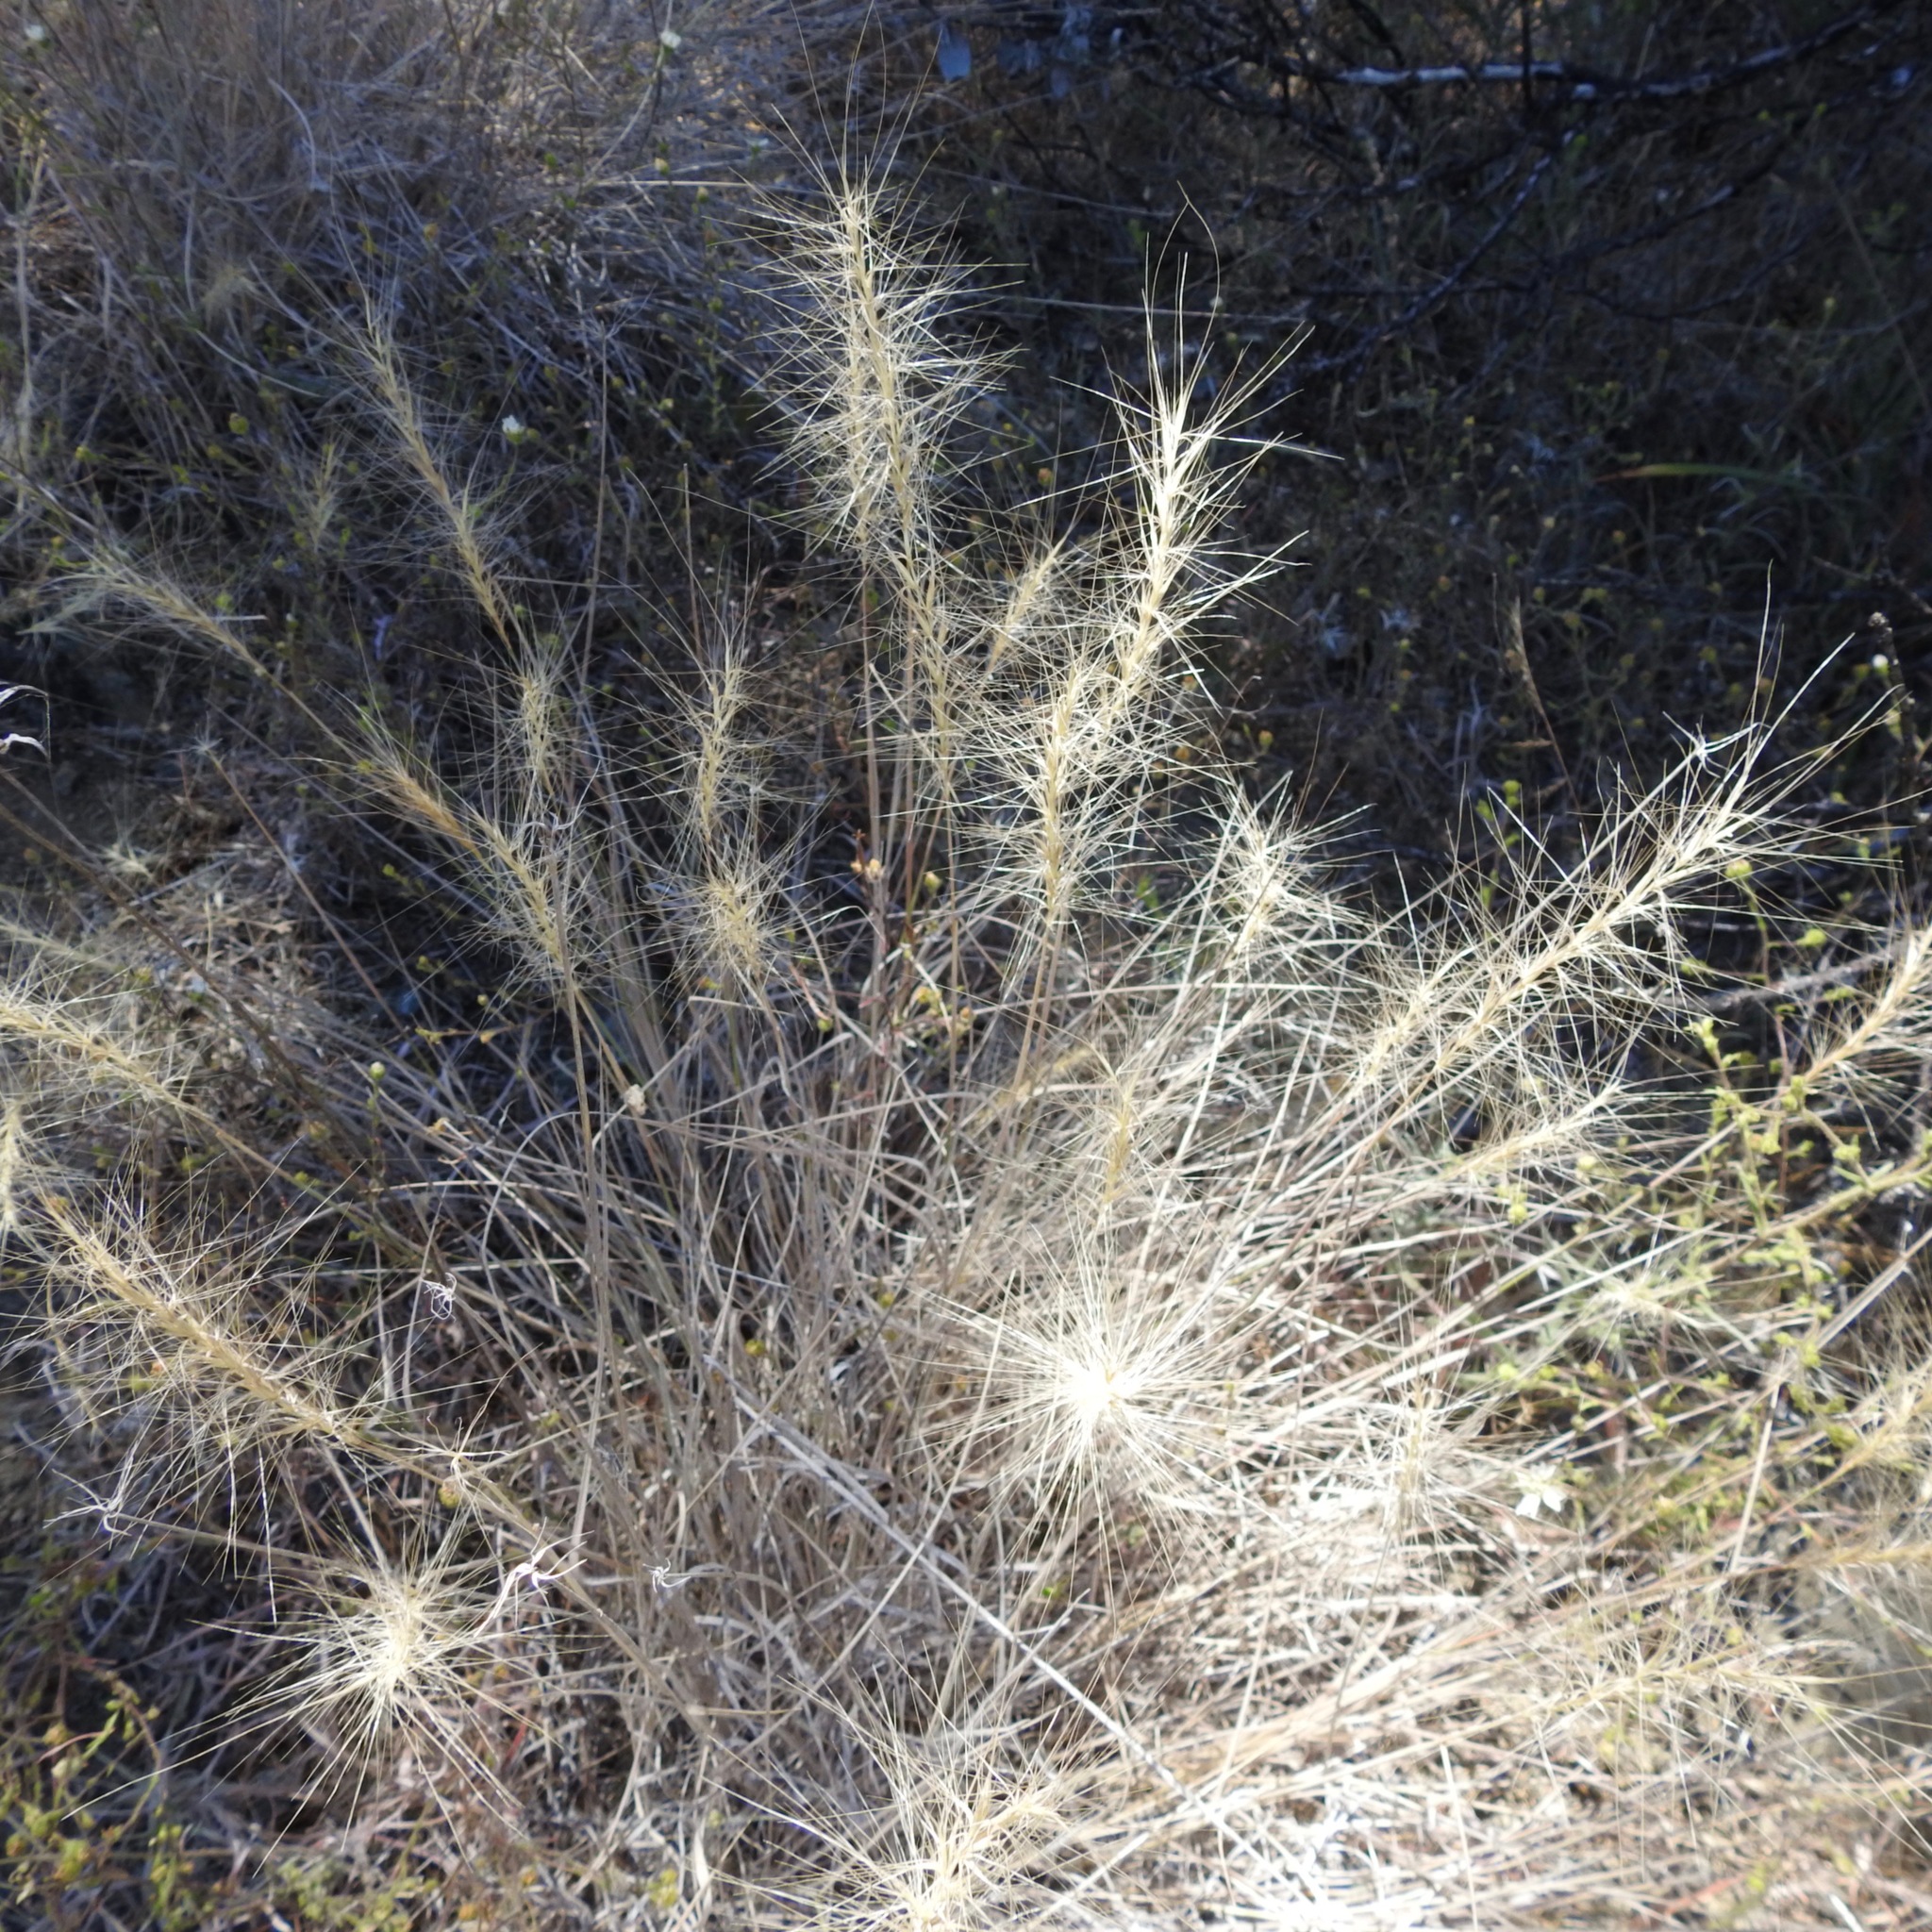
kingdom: Plantae
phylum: Tracheophyta
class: Liliopsida
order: Poales
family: Poaceae
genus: Elymus
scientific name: Elymus elymoides
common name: Bottlebrush squirreltail
